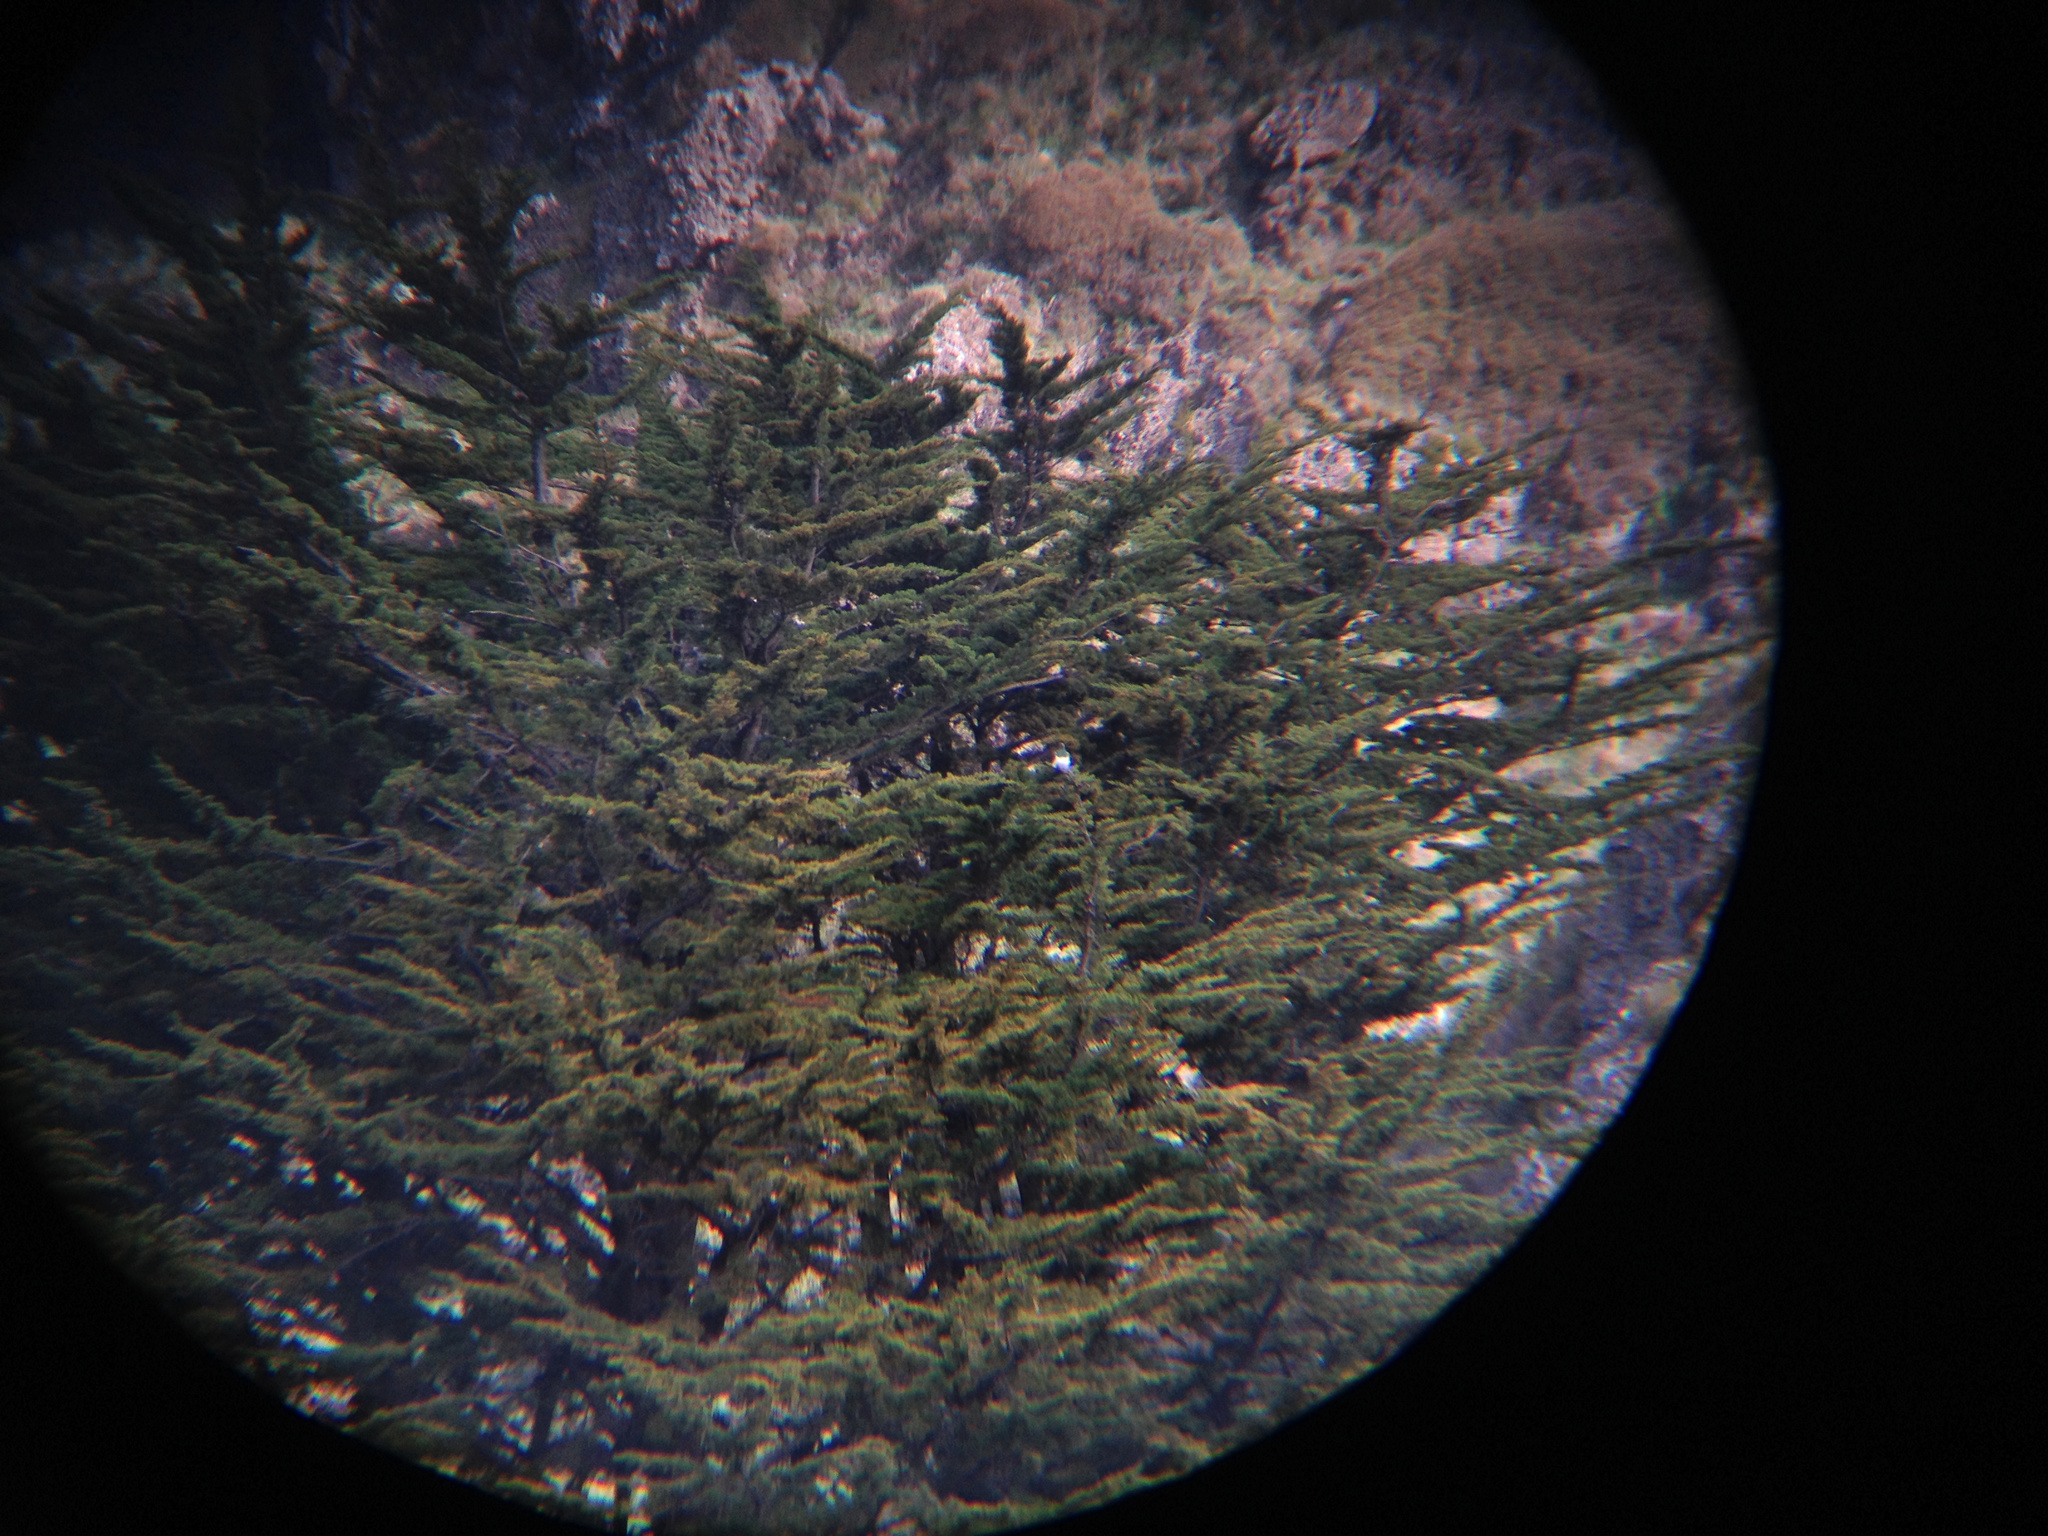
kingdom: Animalia
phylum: Chordata
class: Aves
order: Columbiformes
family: Columbidae
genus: Hemiphaga
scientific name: Hemiphaga novaeseelandiae
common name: New zealand pigeon
